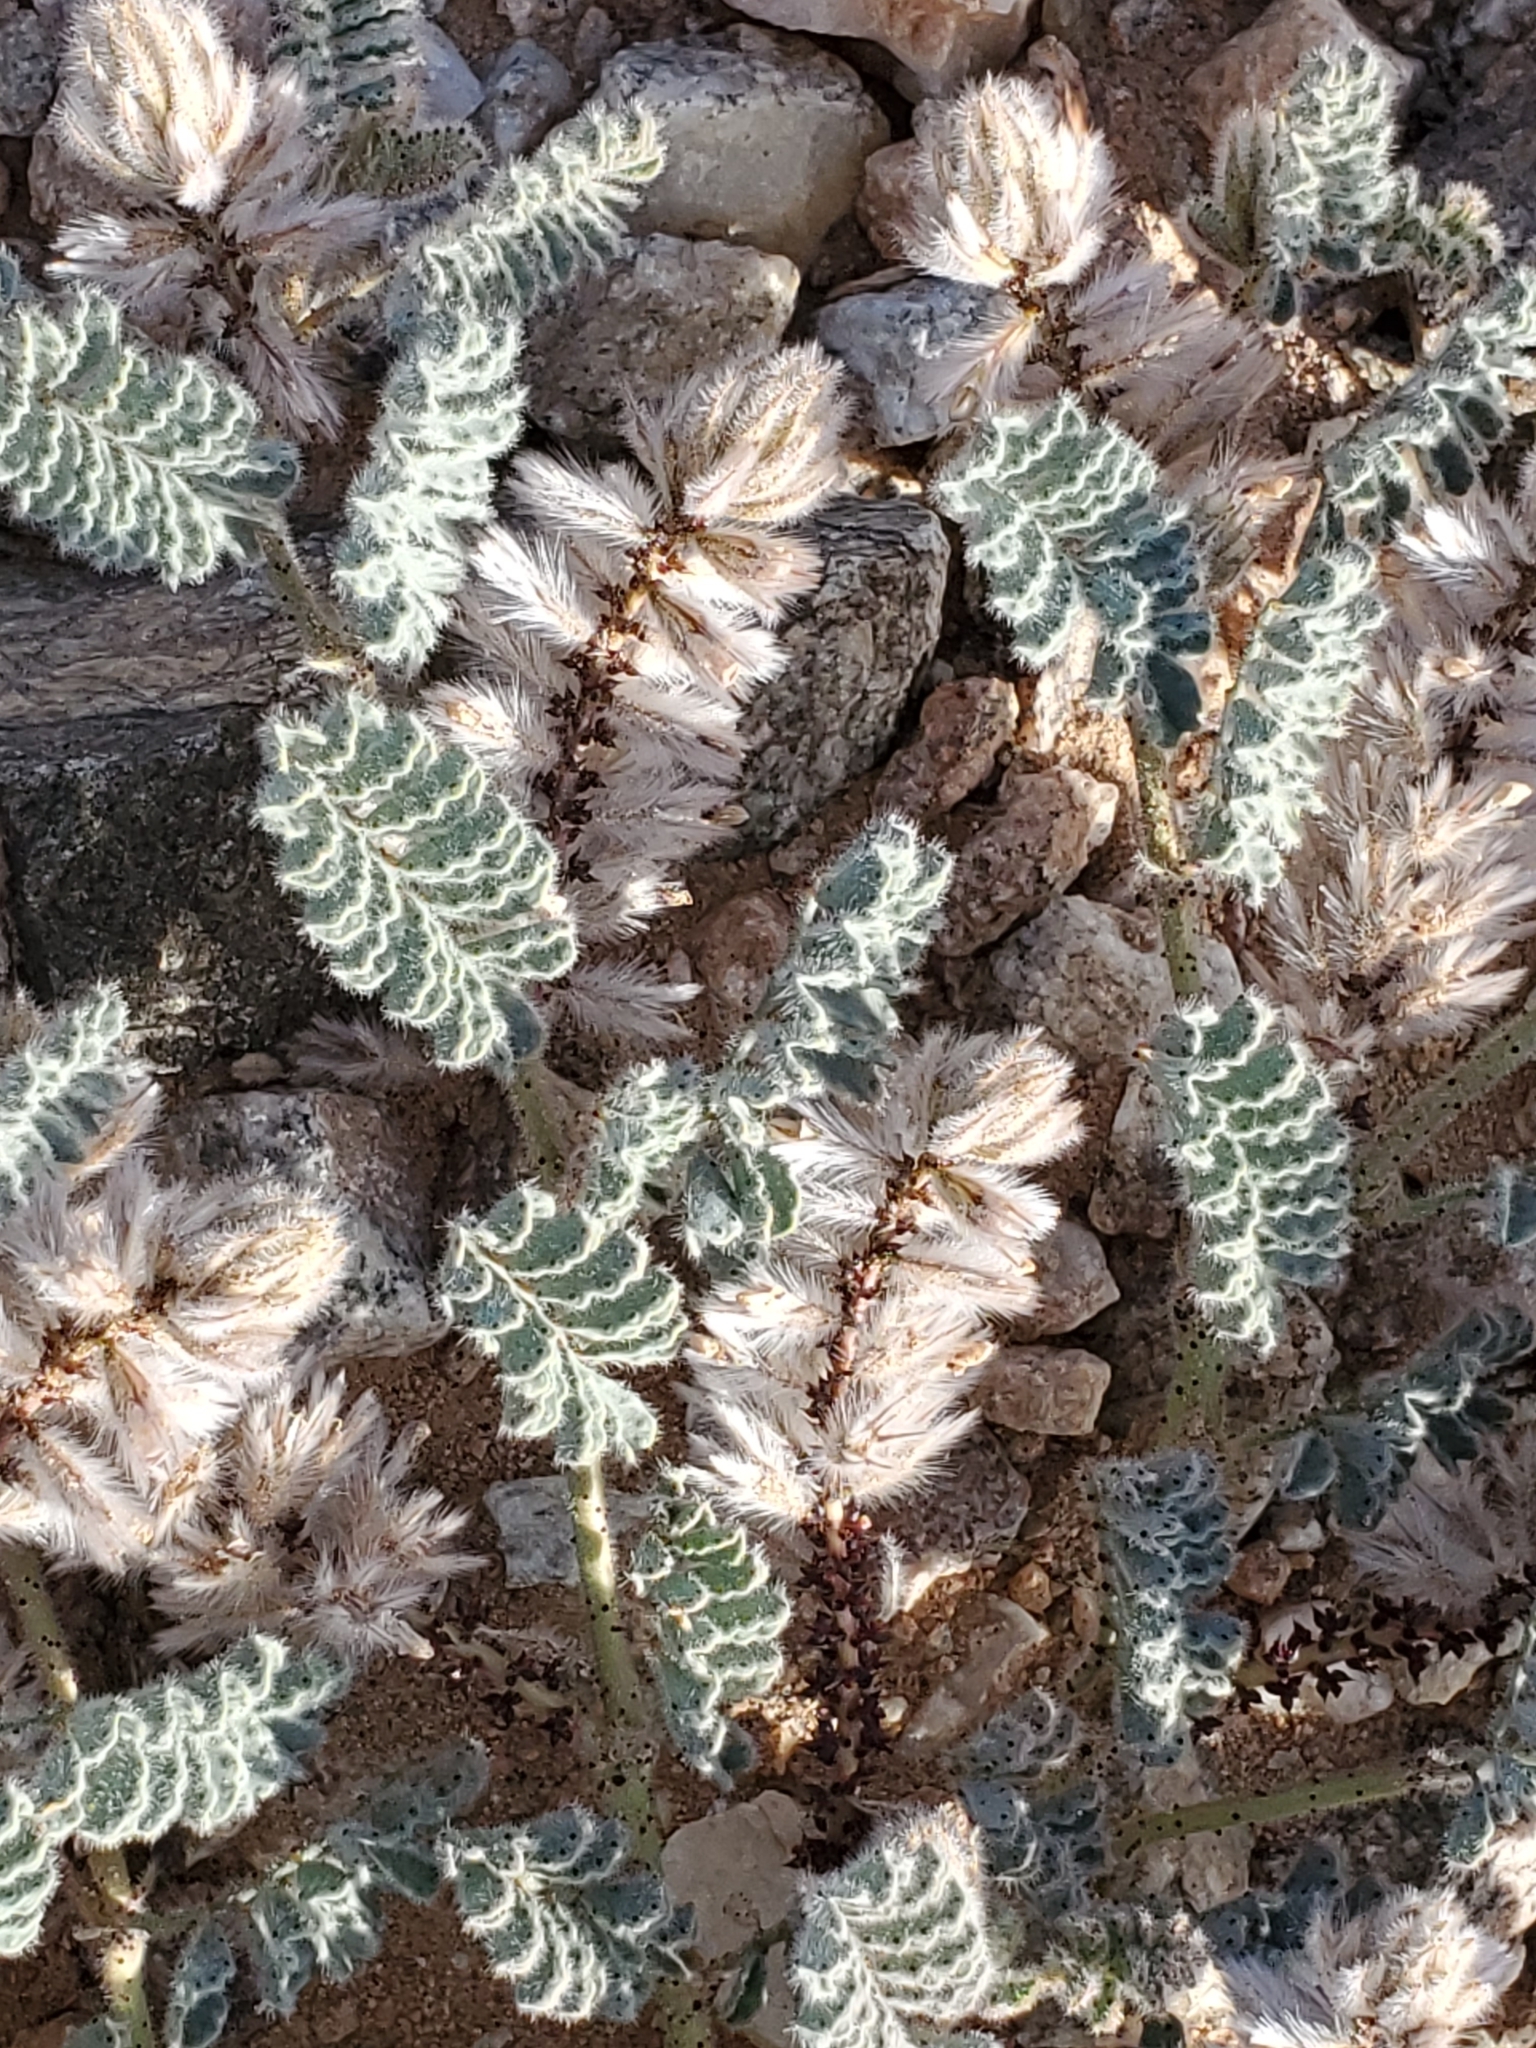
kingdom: Plantae
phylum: Tracheophyta
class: Magnoliopsida
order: Fabales
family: Fabaceae
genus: Dalea
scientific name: Dalea mollissima
